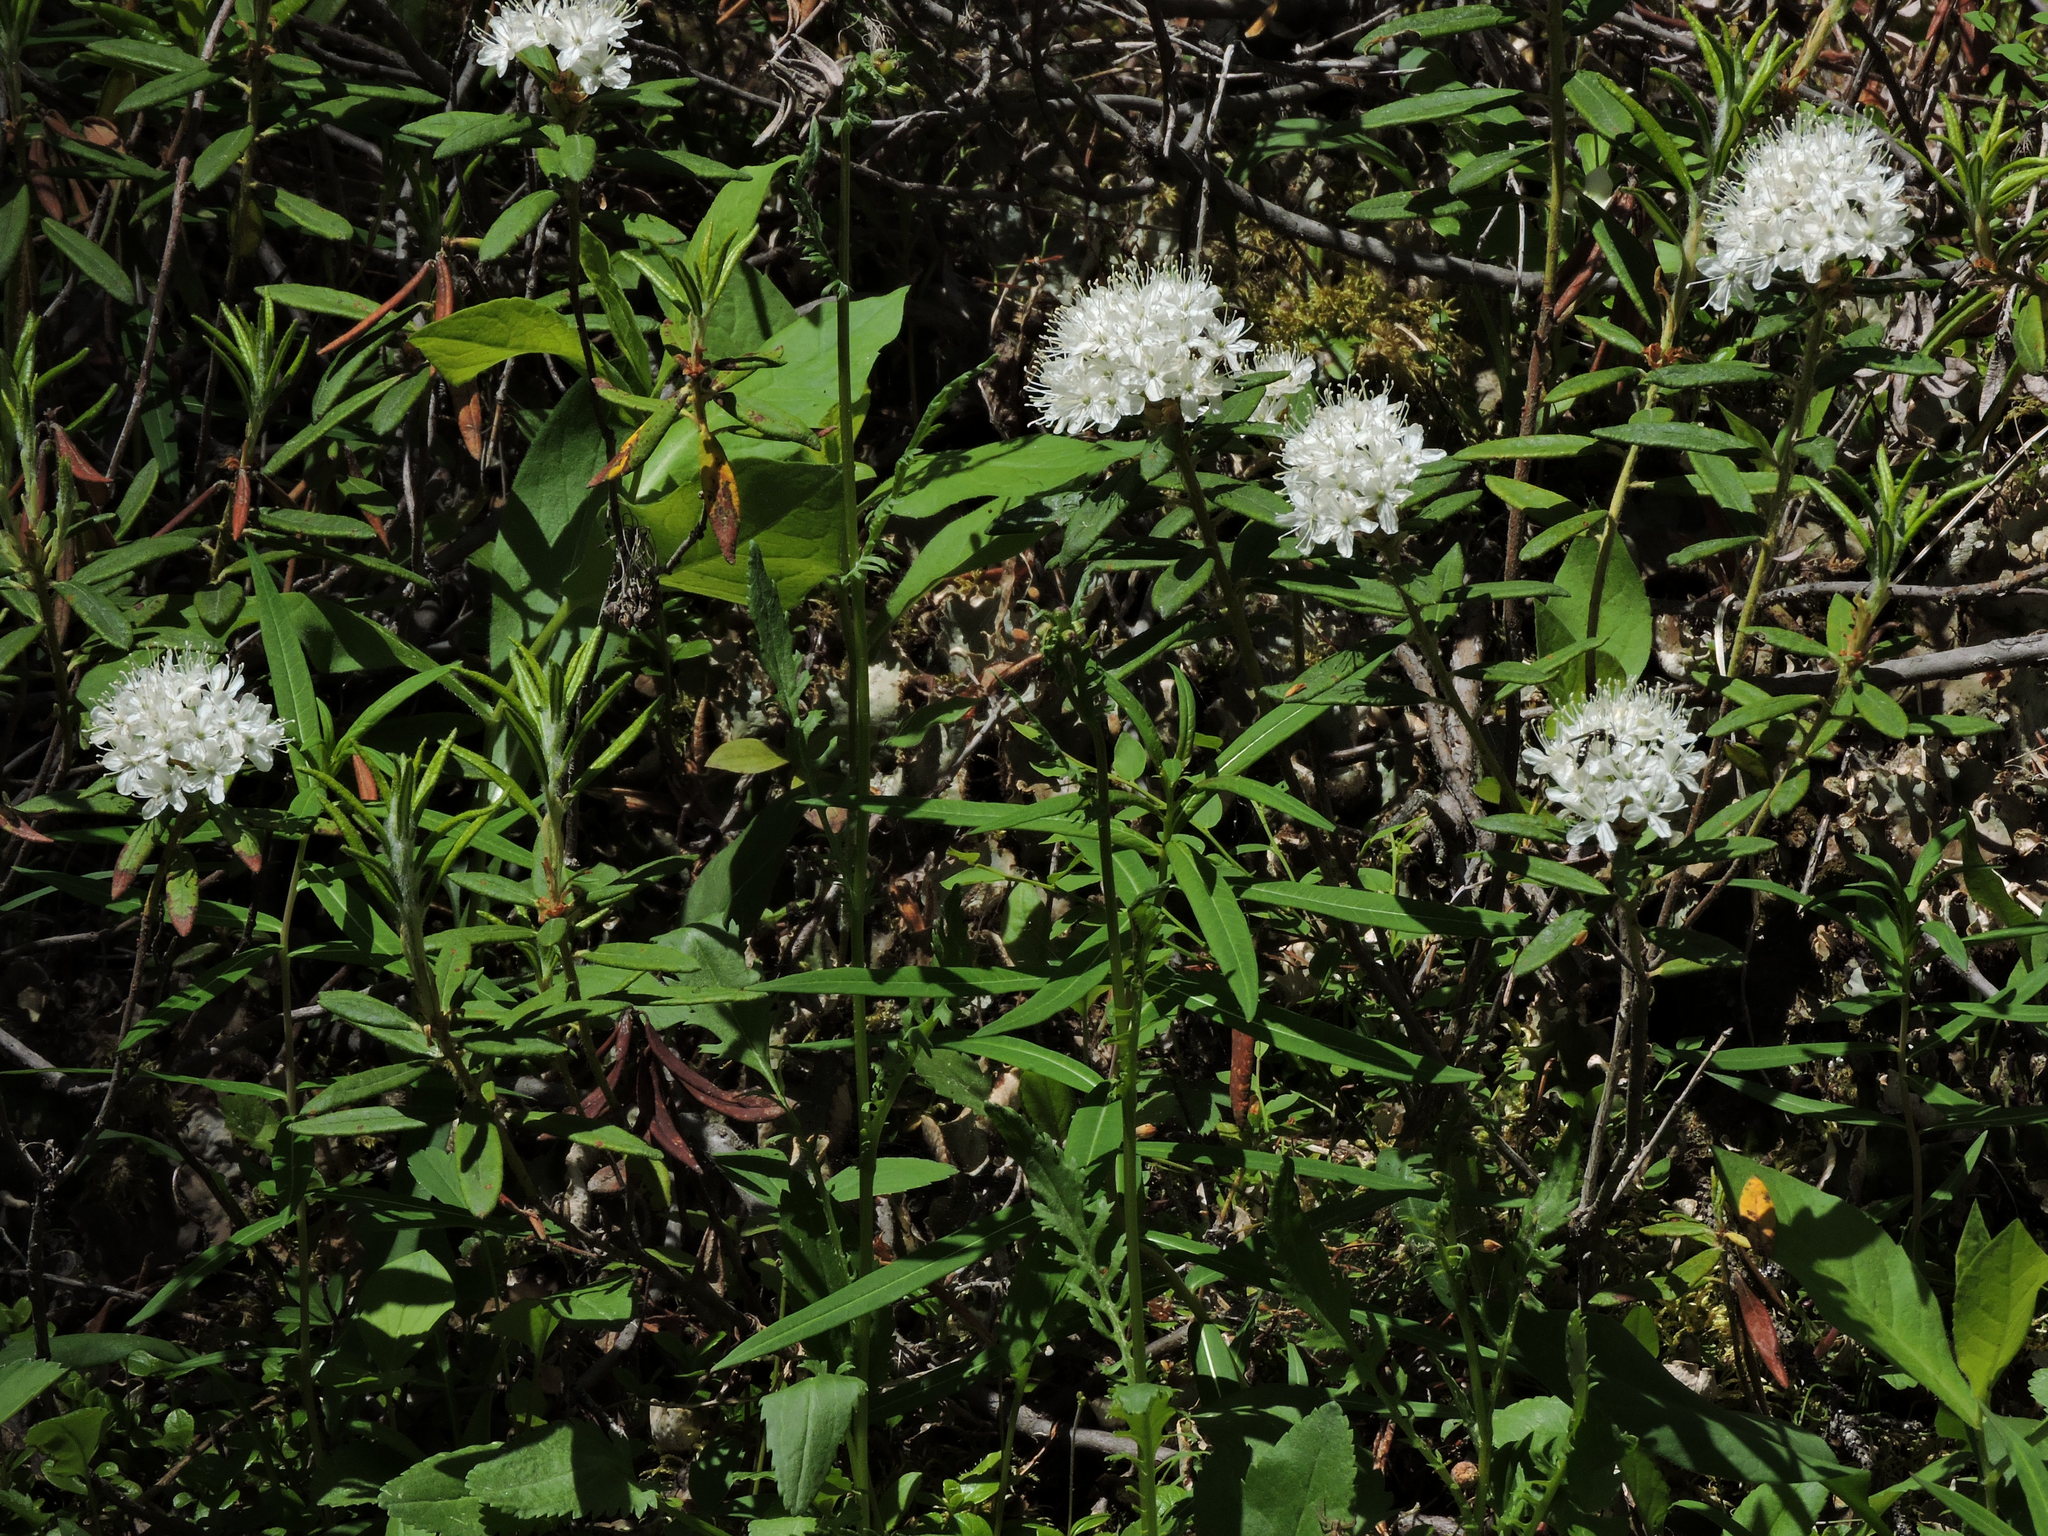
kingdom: Plantae
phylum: Tracheophyta
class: Magnoliopsida
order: Ericales
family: Ericaceae
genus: Rhododendron
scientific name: Rhododendron groenlandicum
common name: Bog labrador tea
